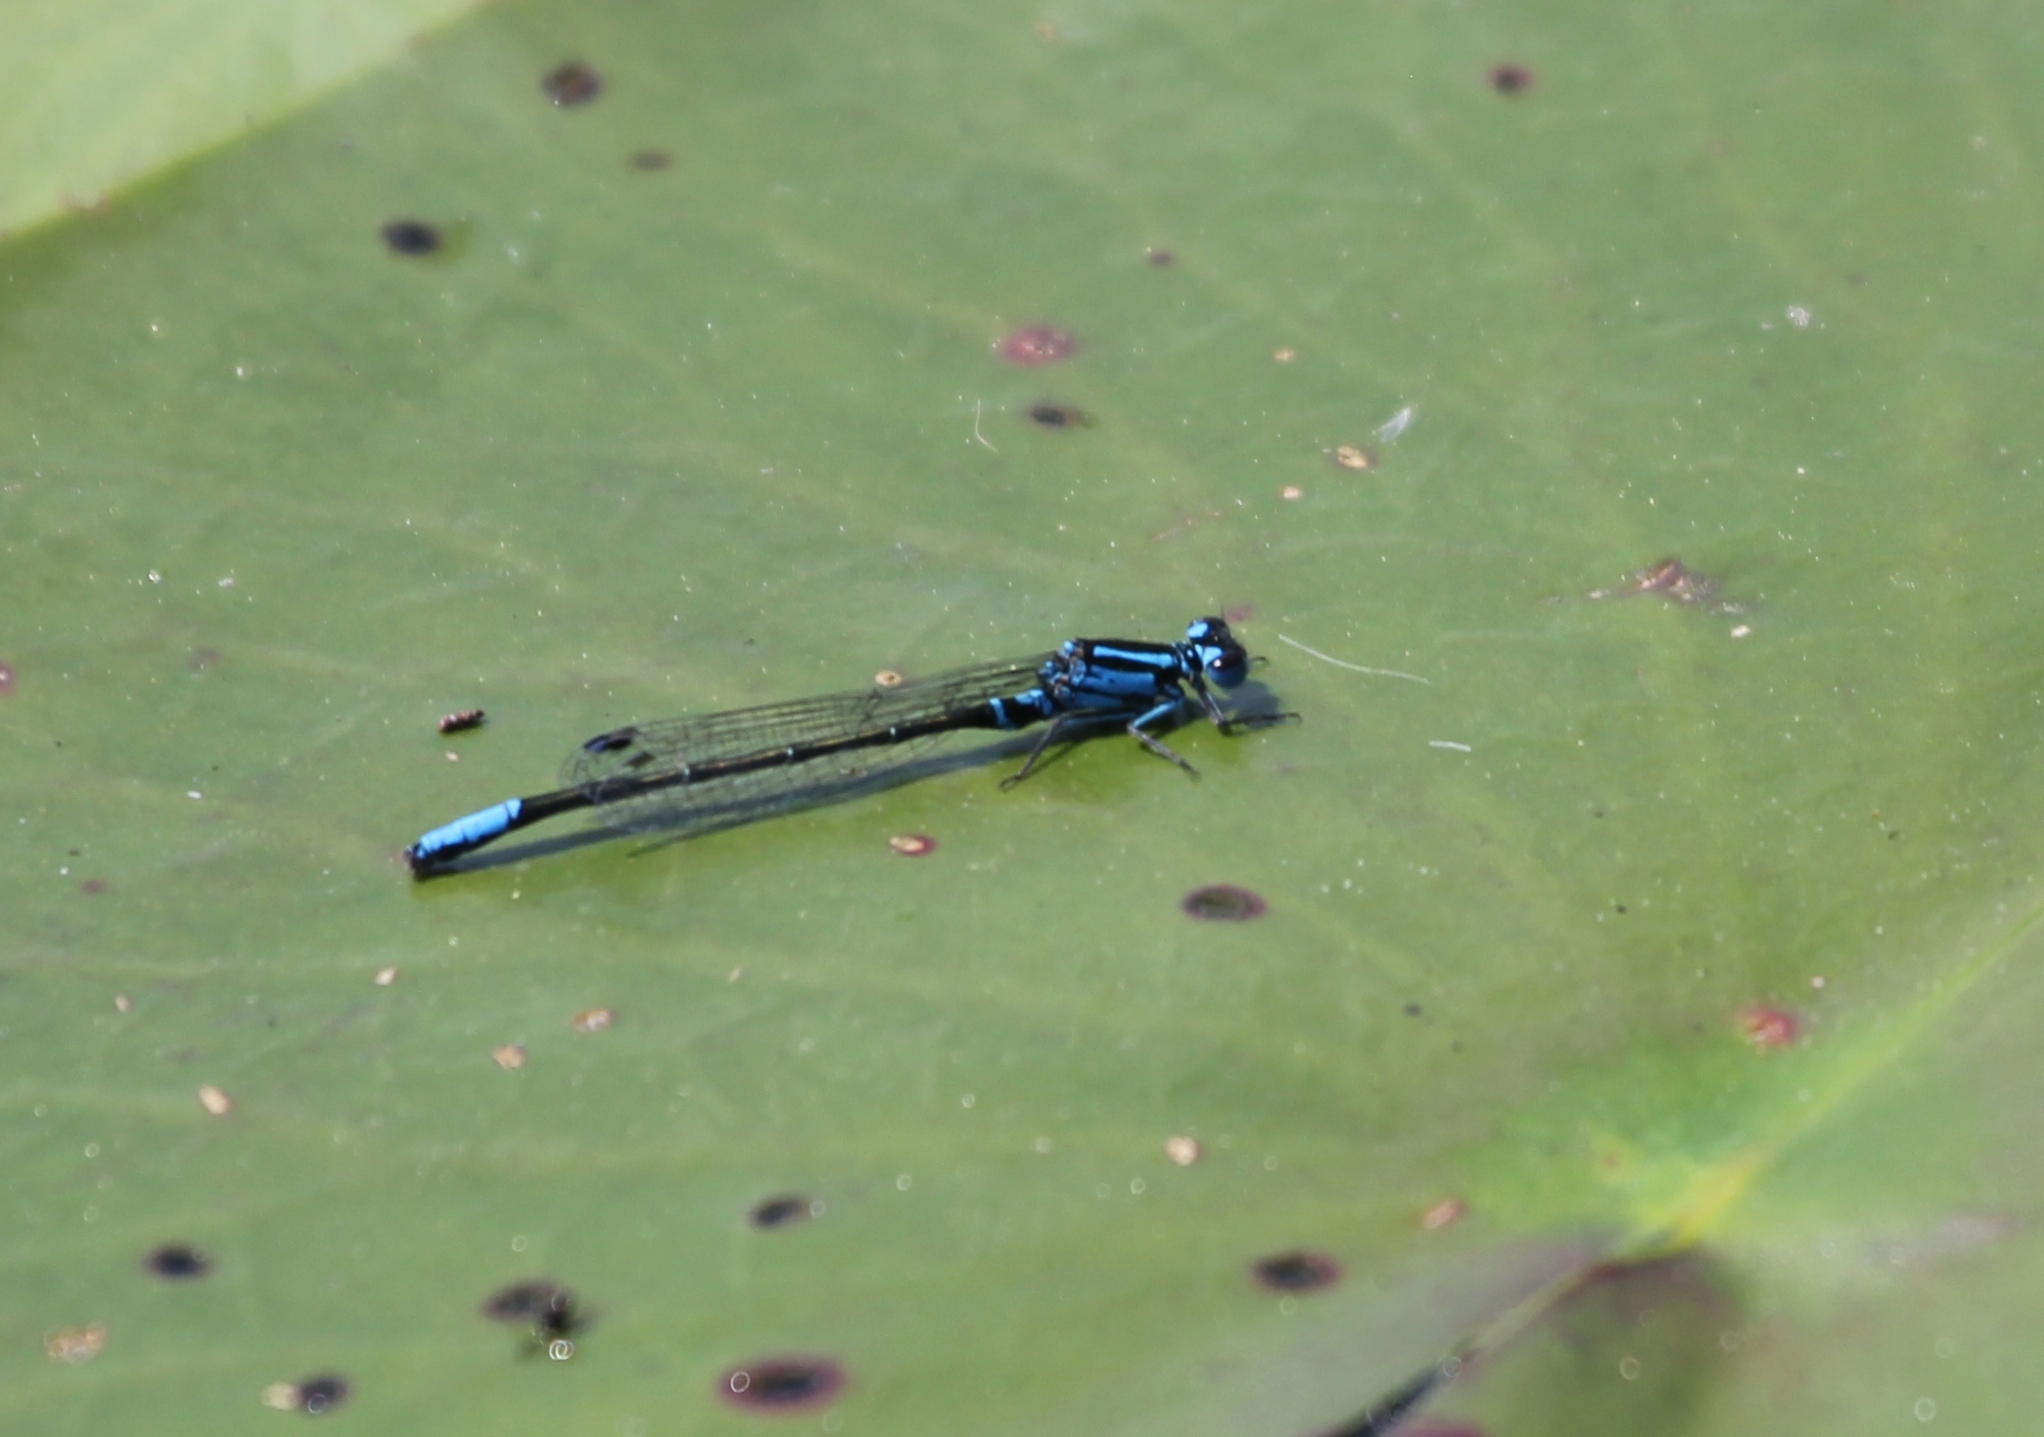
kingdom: Animalia
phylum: Arthropoda
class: Insecta
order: Odonata
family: Coenagrionidae
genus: Ischnura
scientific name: Ischnura kellicotti
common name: Lilypad forktail
